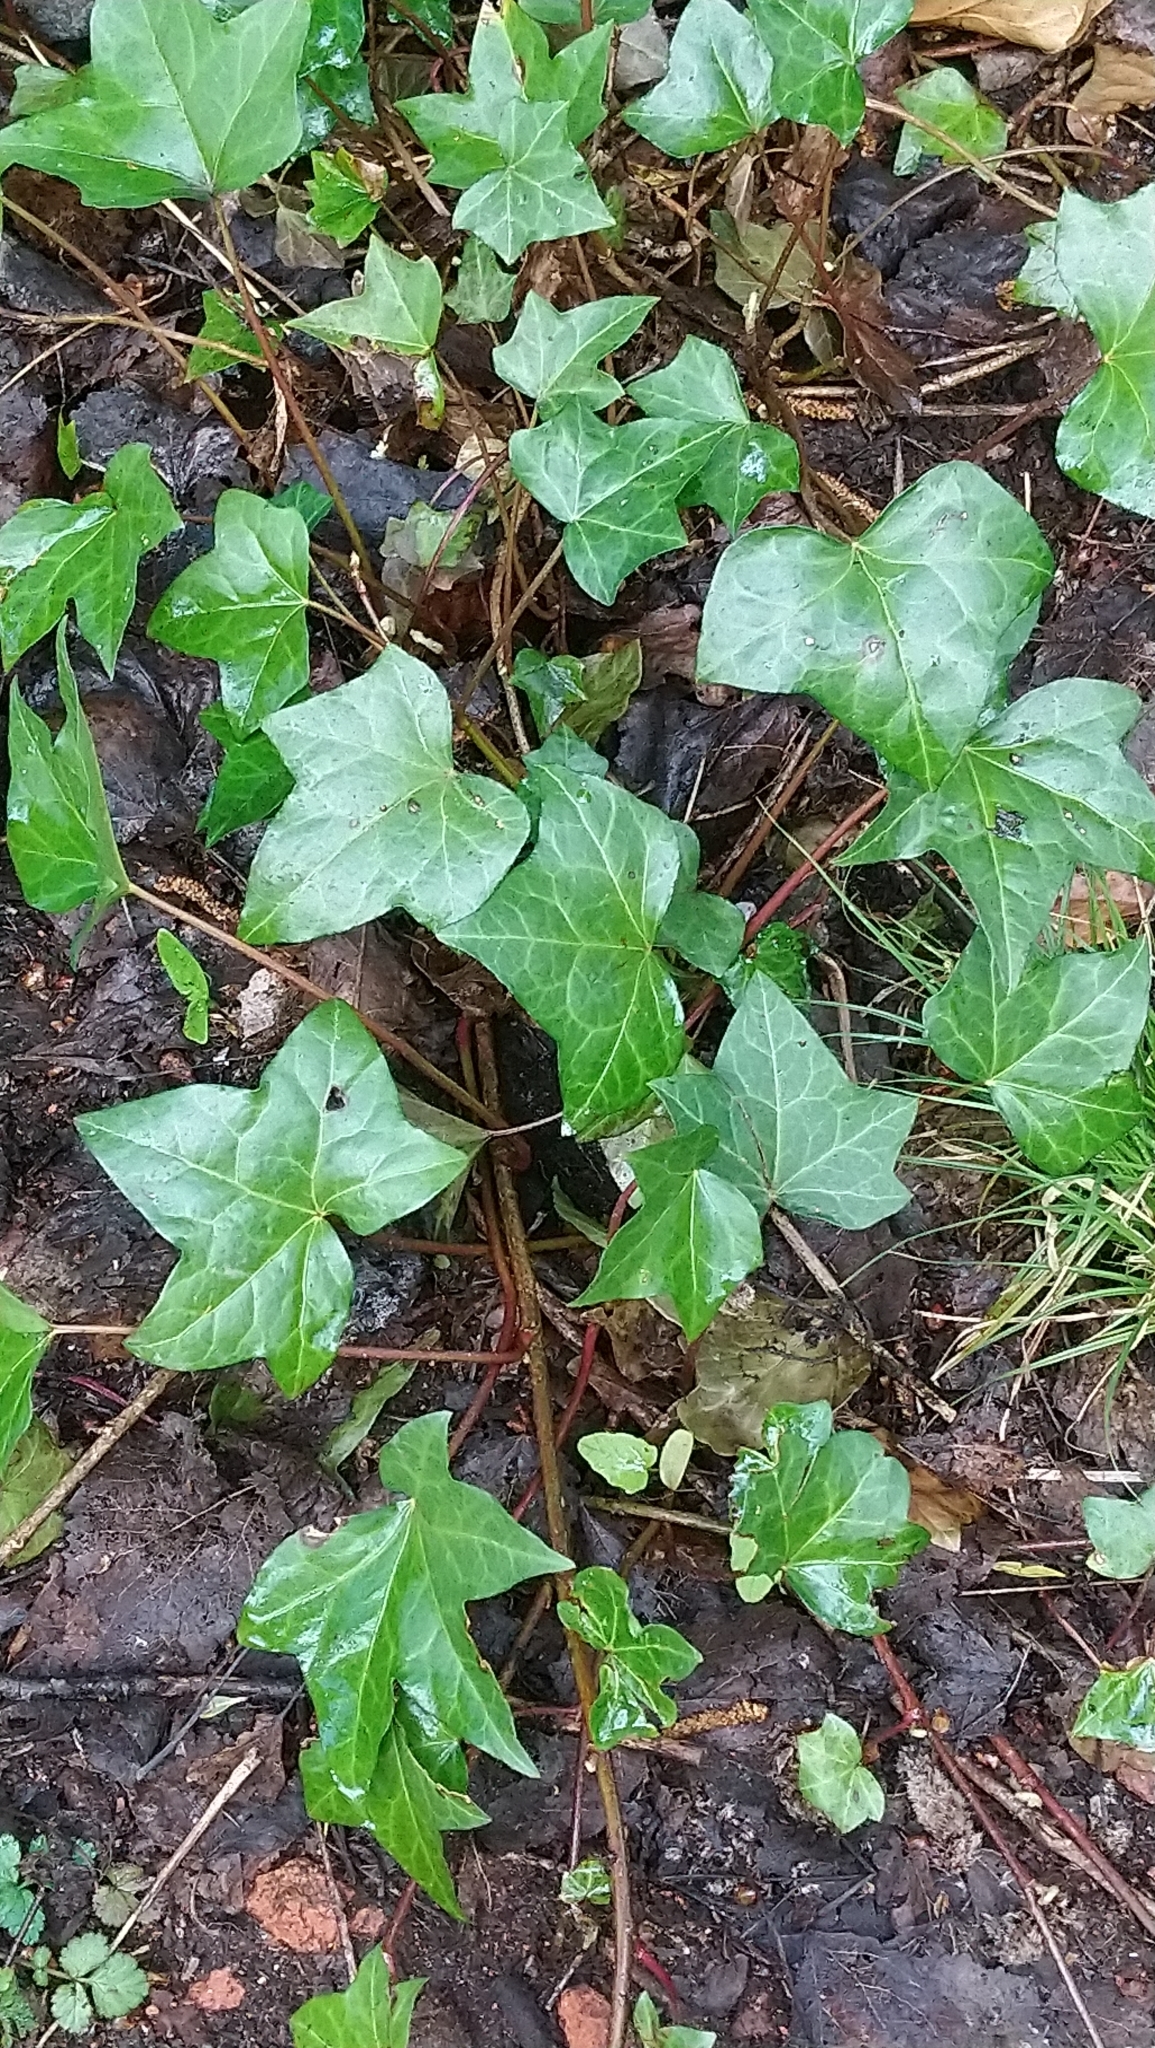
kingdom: Plantae
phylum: Tracheophyta
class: Magnoliopsida
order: Apiales
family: Araliaceae
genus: Hedera
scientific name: Hedera helix
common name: Ivy
